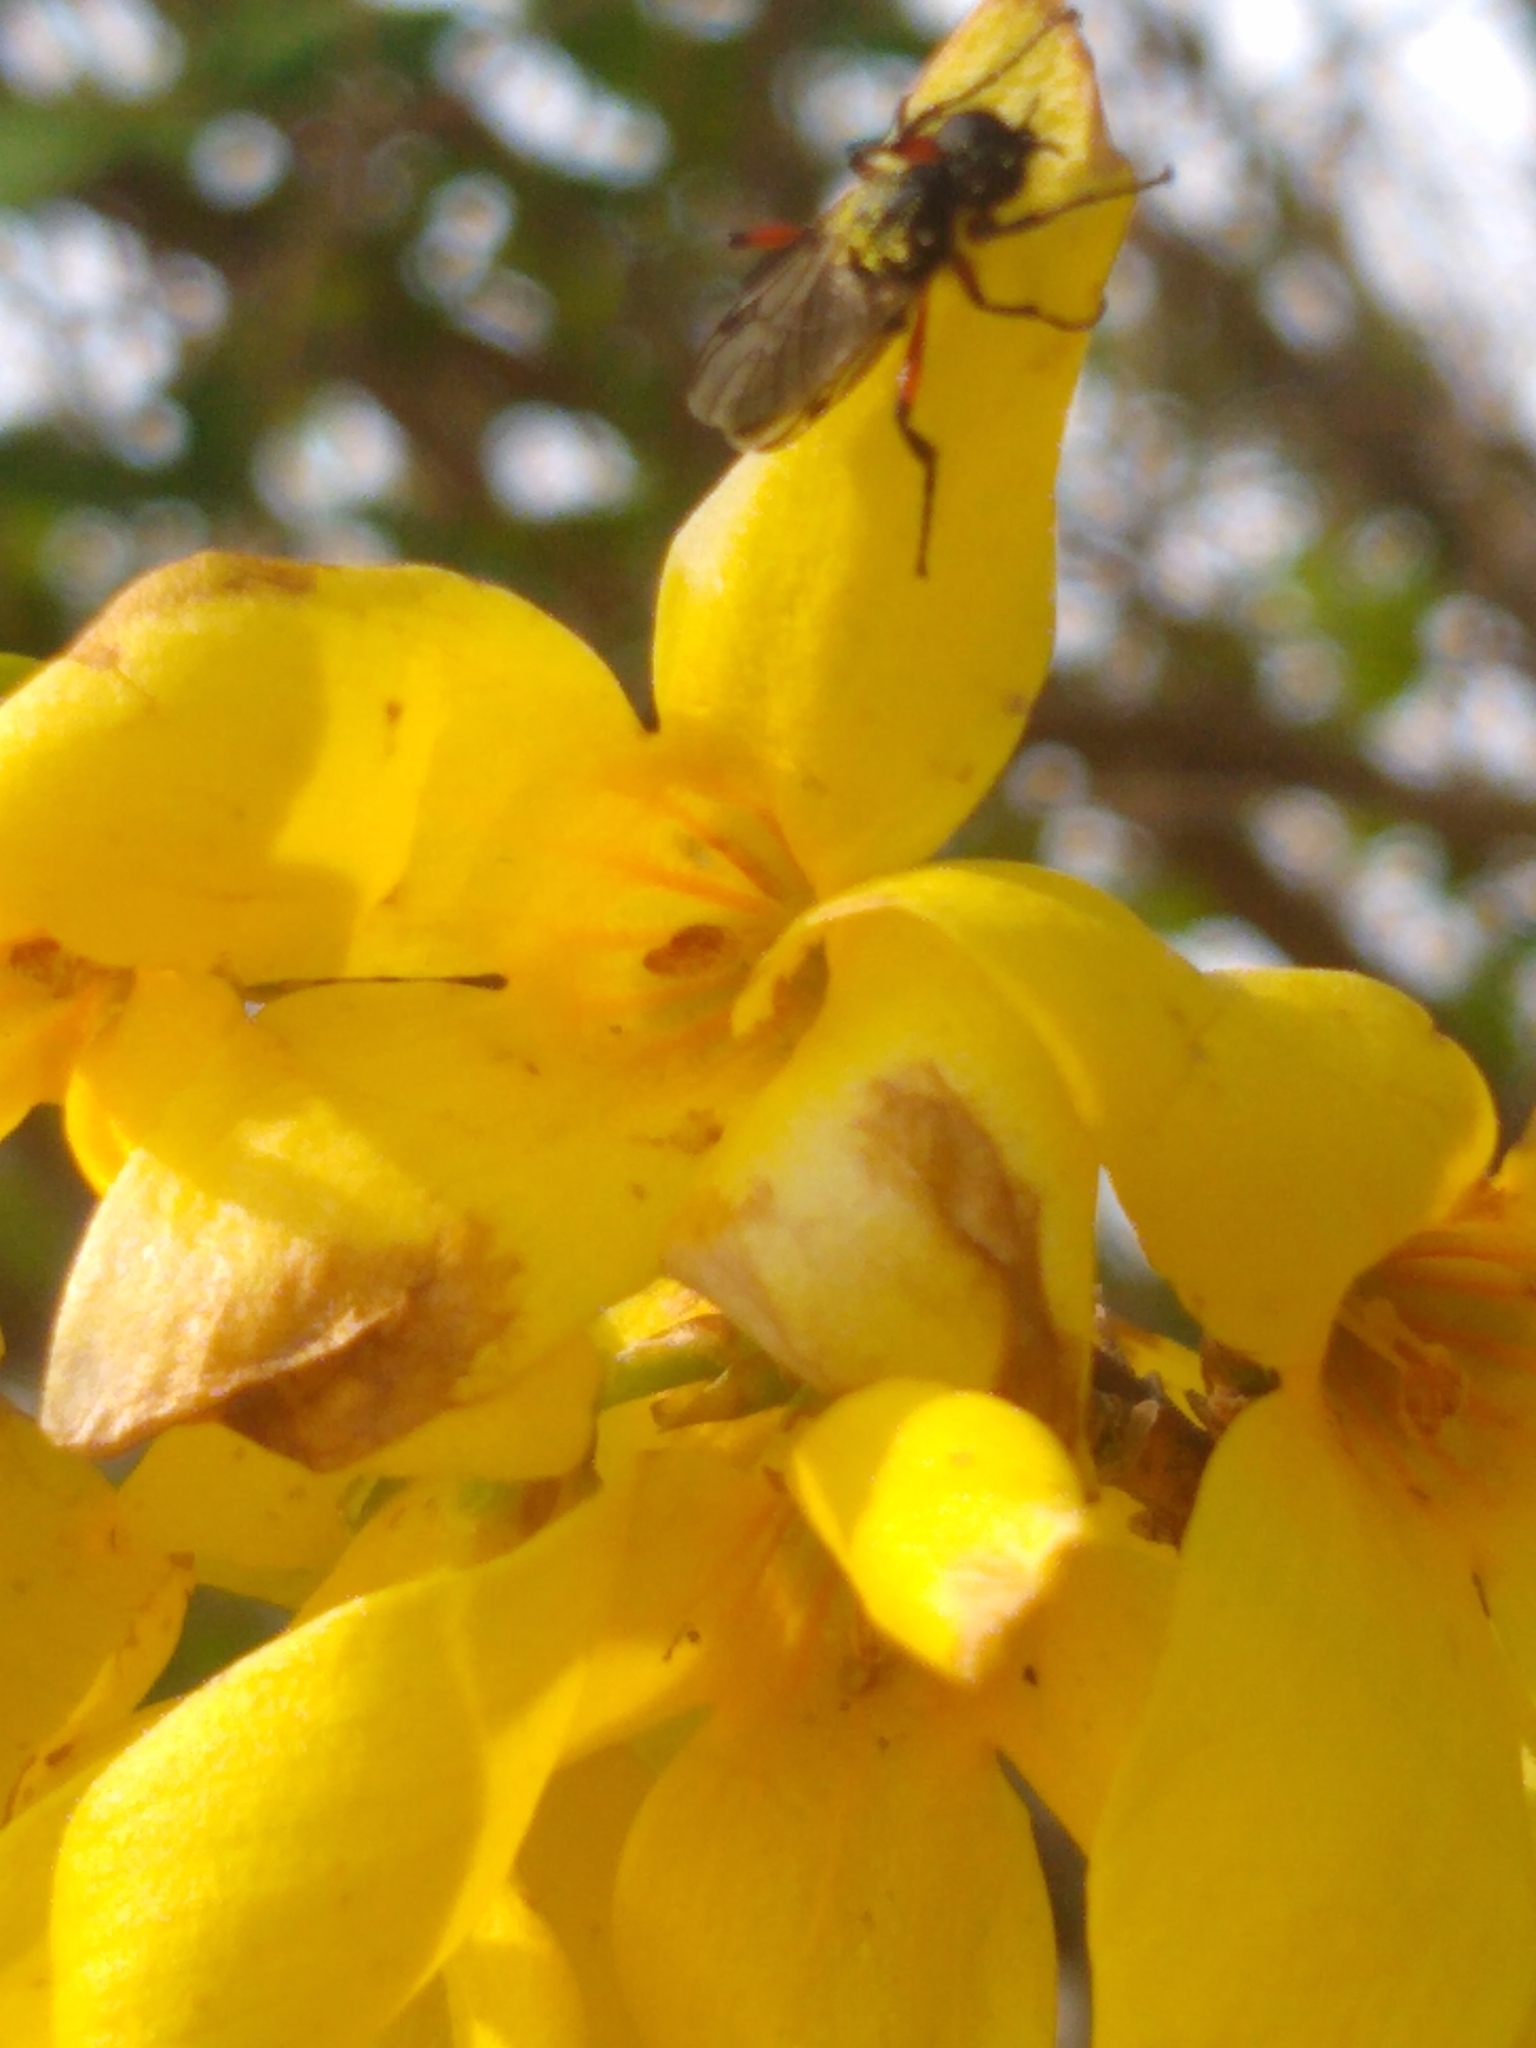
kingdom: Animalia
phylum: Arthropoda
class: Insecta
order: Diptera
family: Bibionidae
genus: Bibio
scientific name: Bibio femoratus
